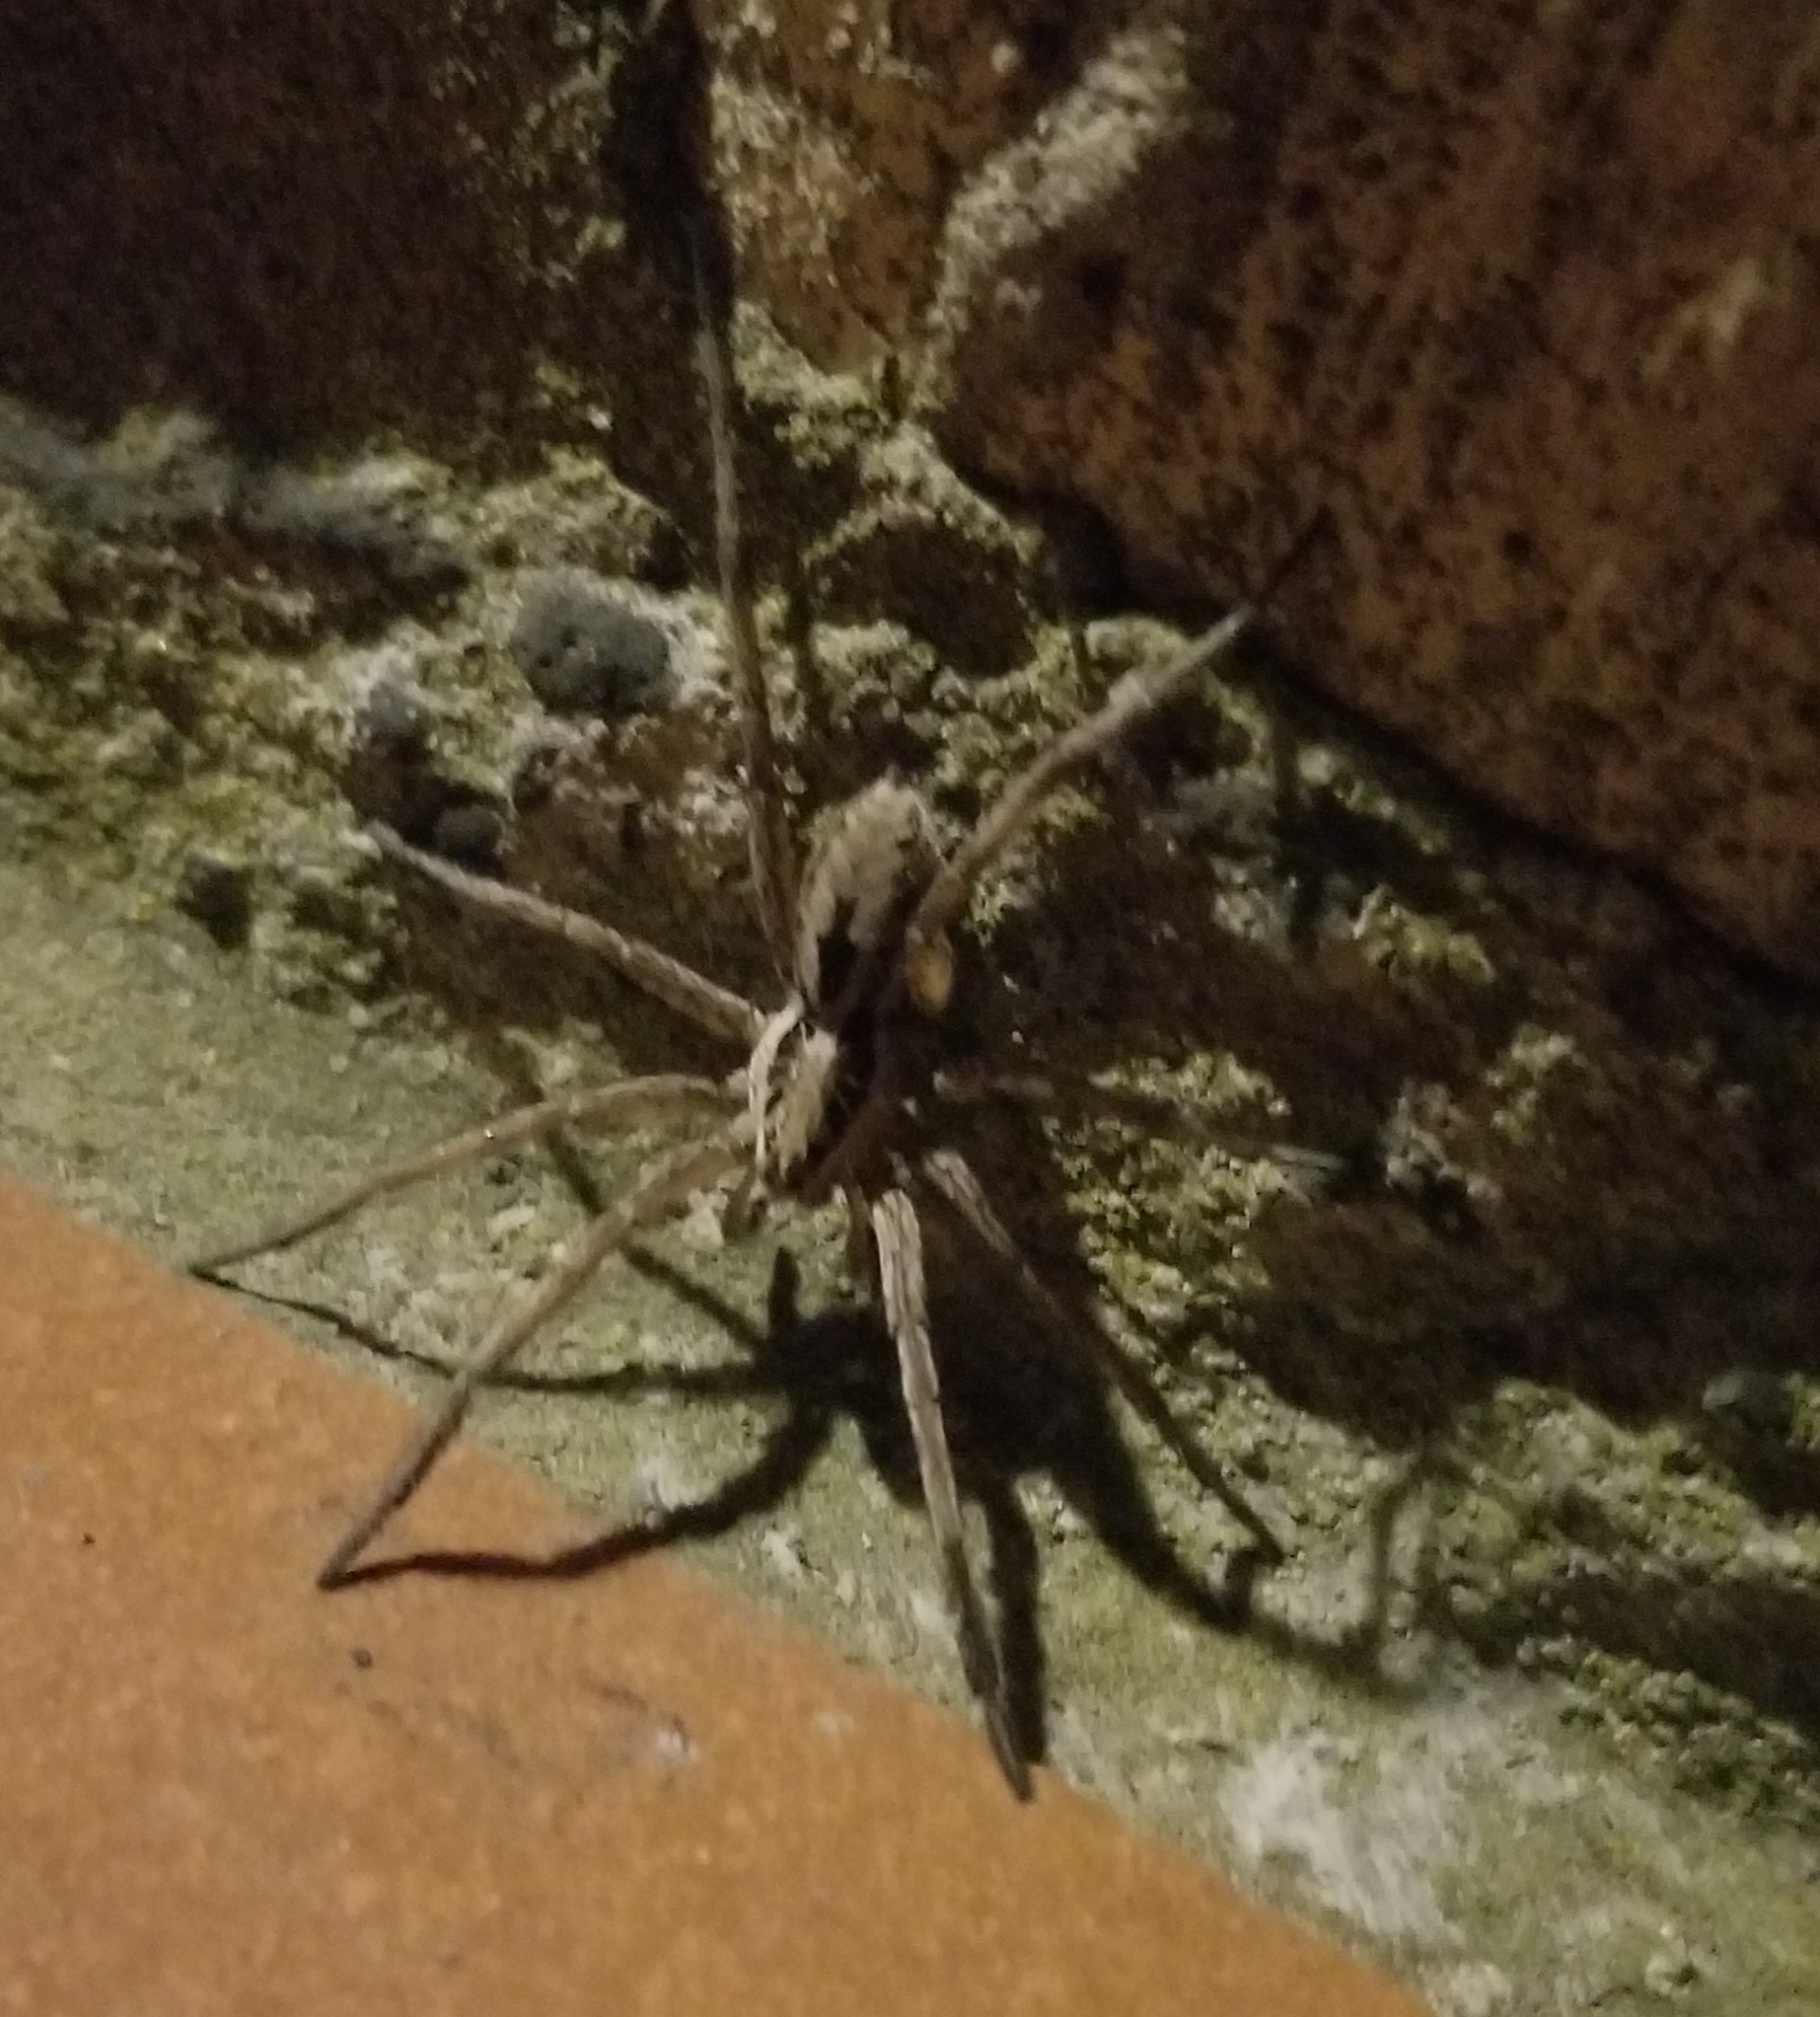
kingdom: Animalia
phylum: Arthropoda
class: Arachnida
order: Araneae
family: Lycosidae
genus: Hogna
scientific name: Hogna radiata
